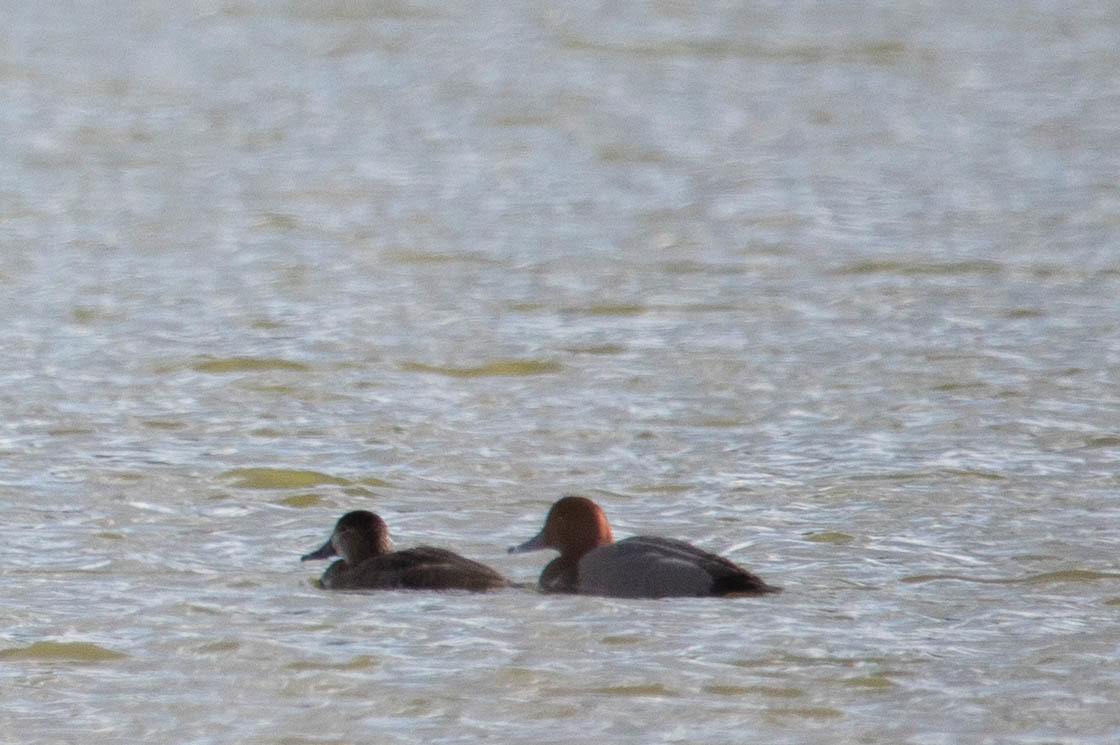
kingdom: Animalia
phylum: Chordata
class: Aves
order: Anseriformes
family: Anatidae
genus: Aythya
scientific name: Aythya americana
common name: Redhead
